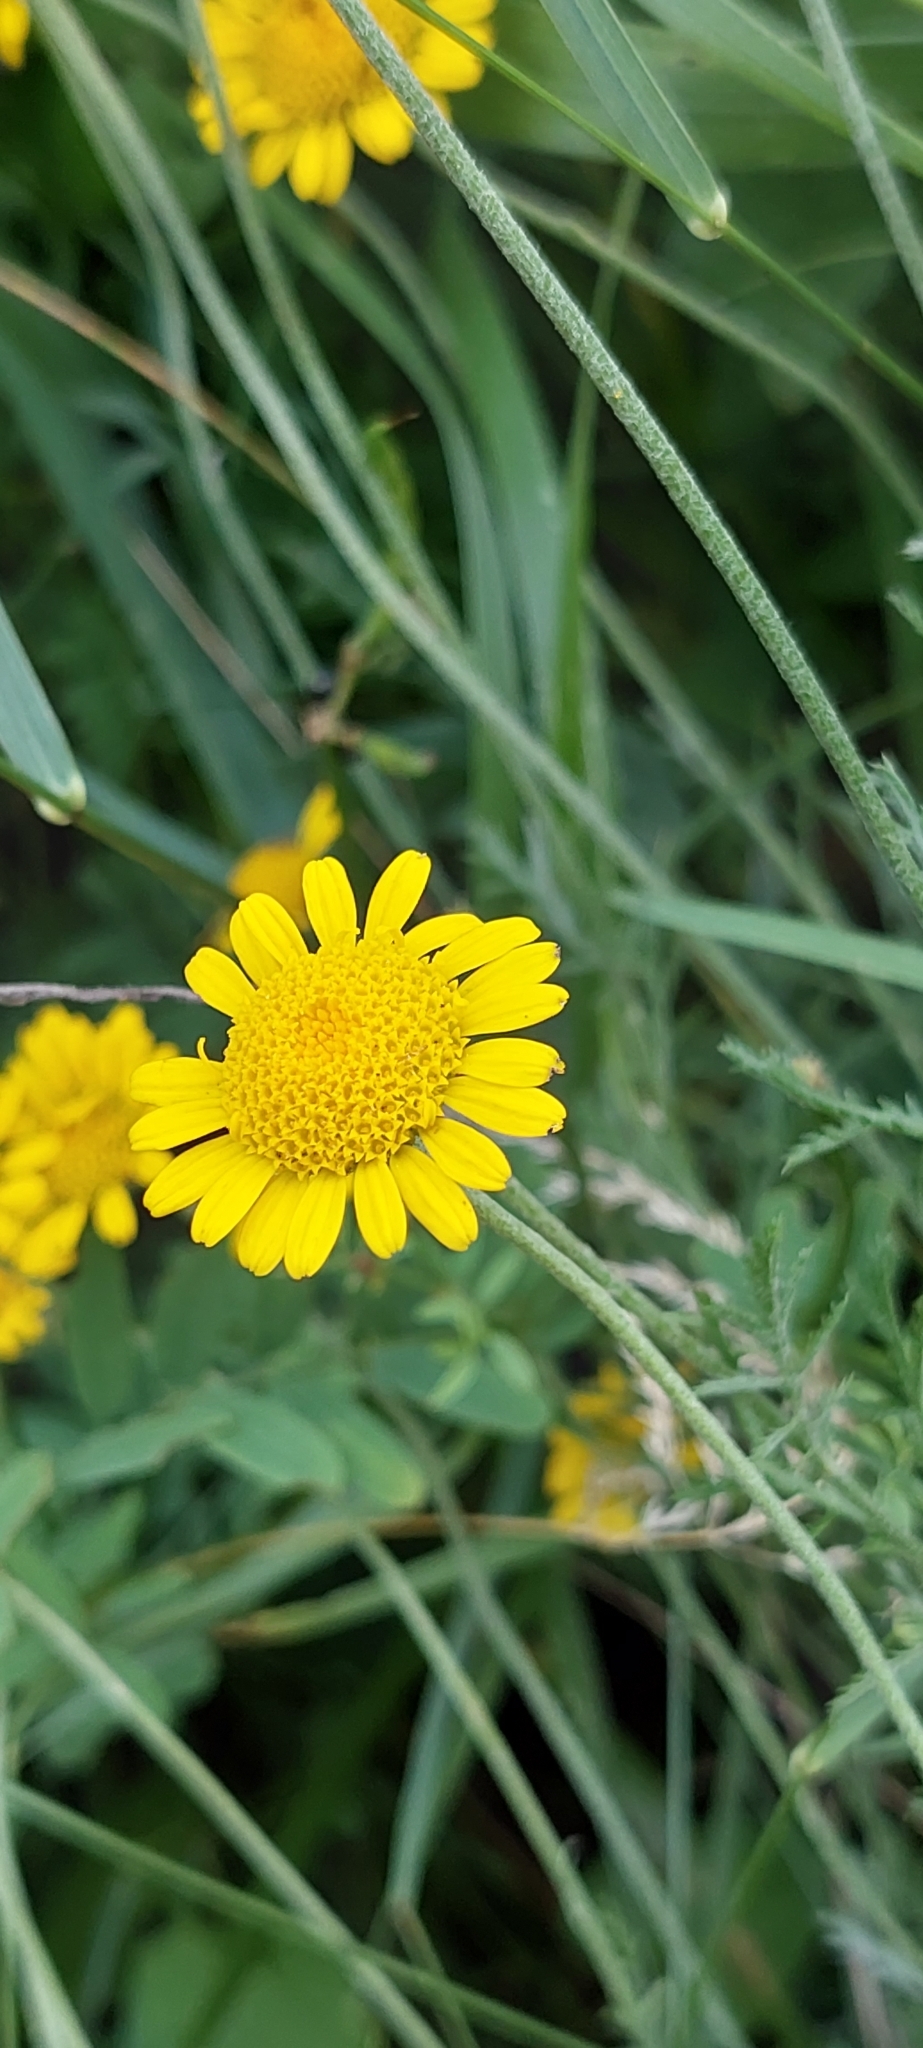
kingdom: Plantae
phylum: Tracheophyta
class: Magnoliopsida
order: Asterales
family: Asteraceae
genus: Cota
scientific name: Cota tinctoria
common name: Golden chamomile
